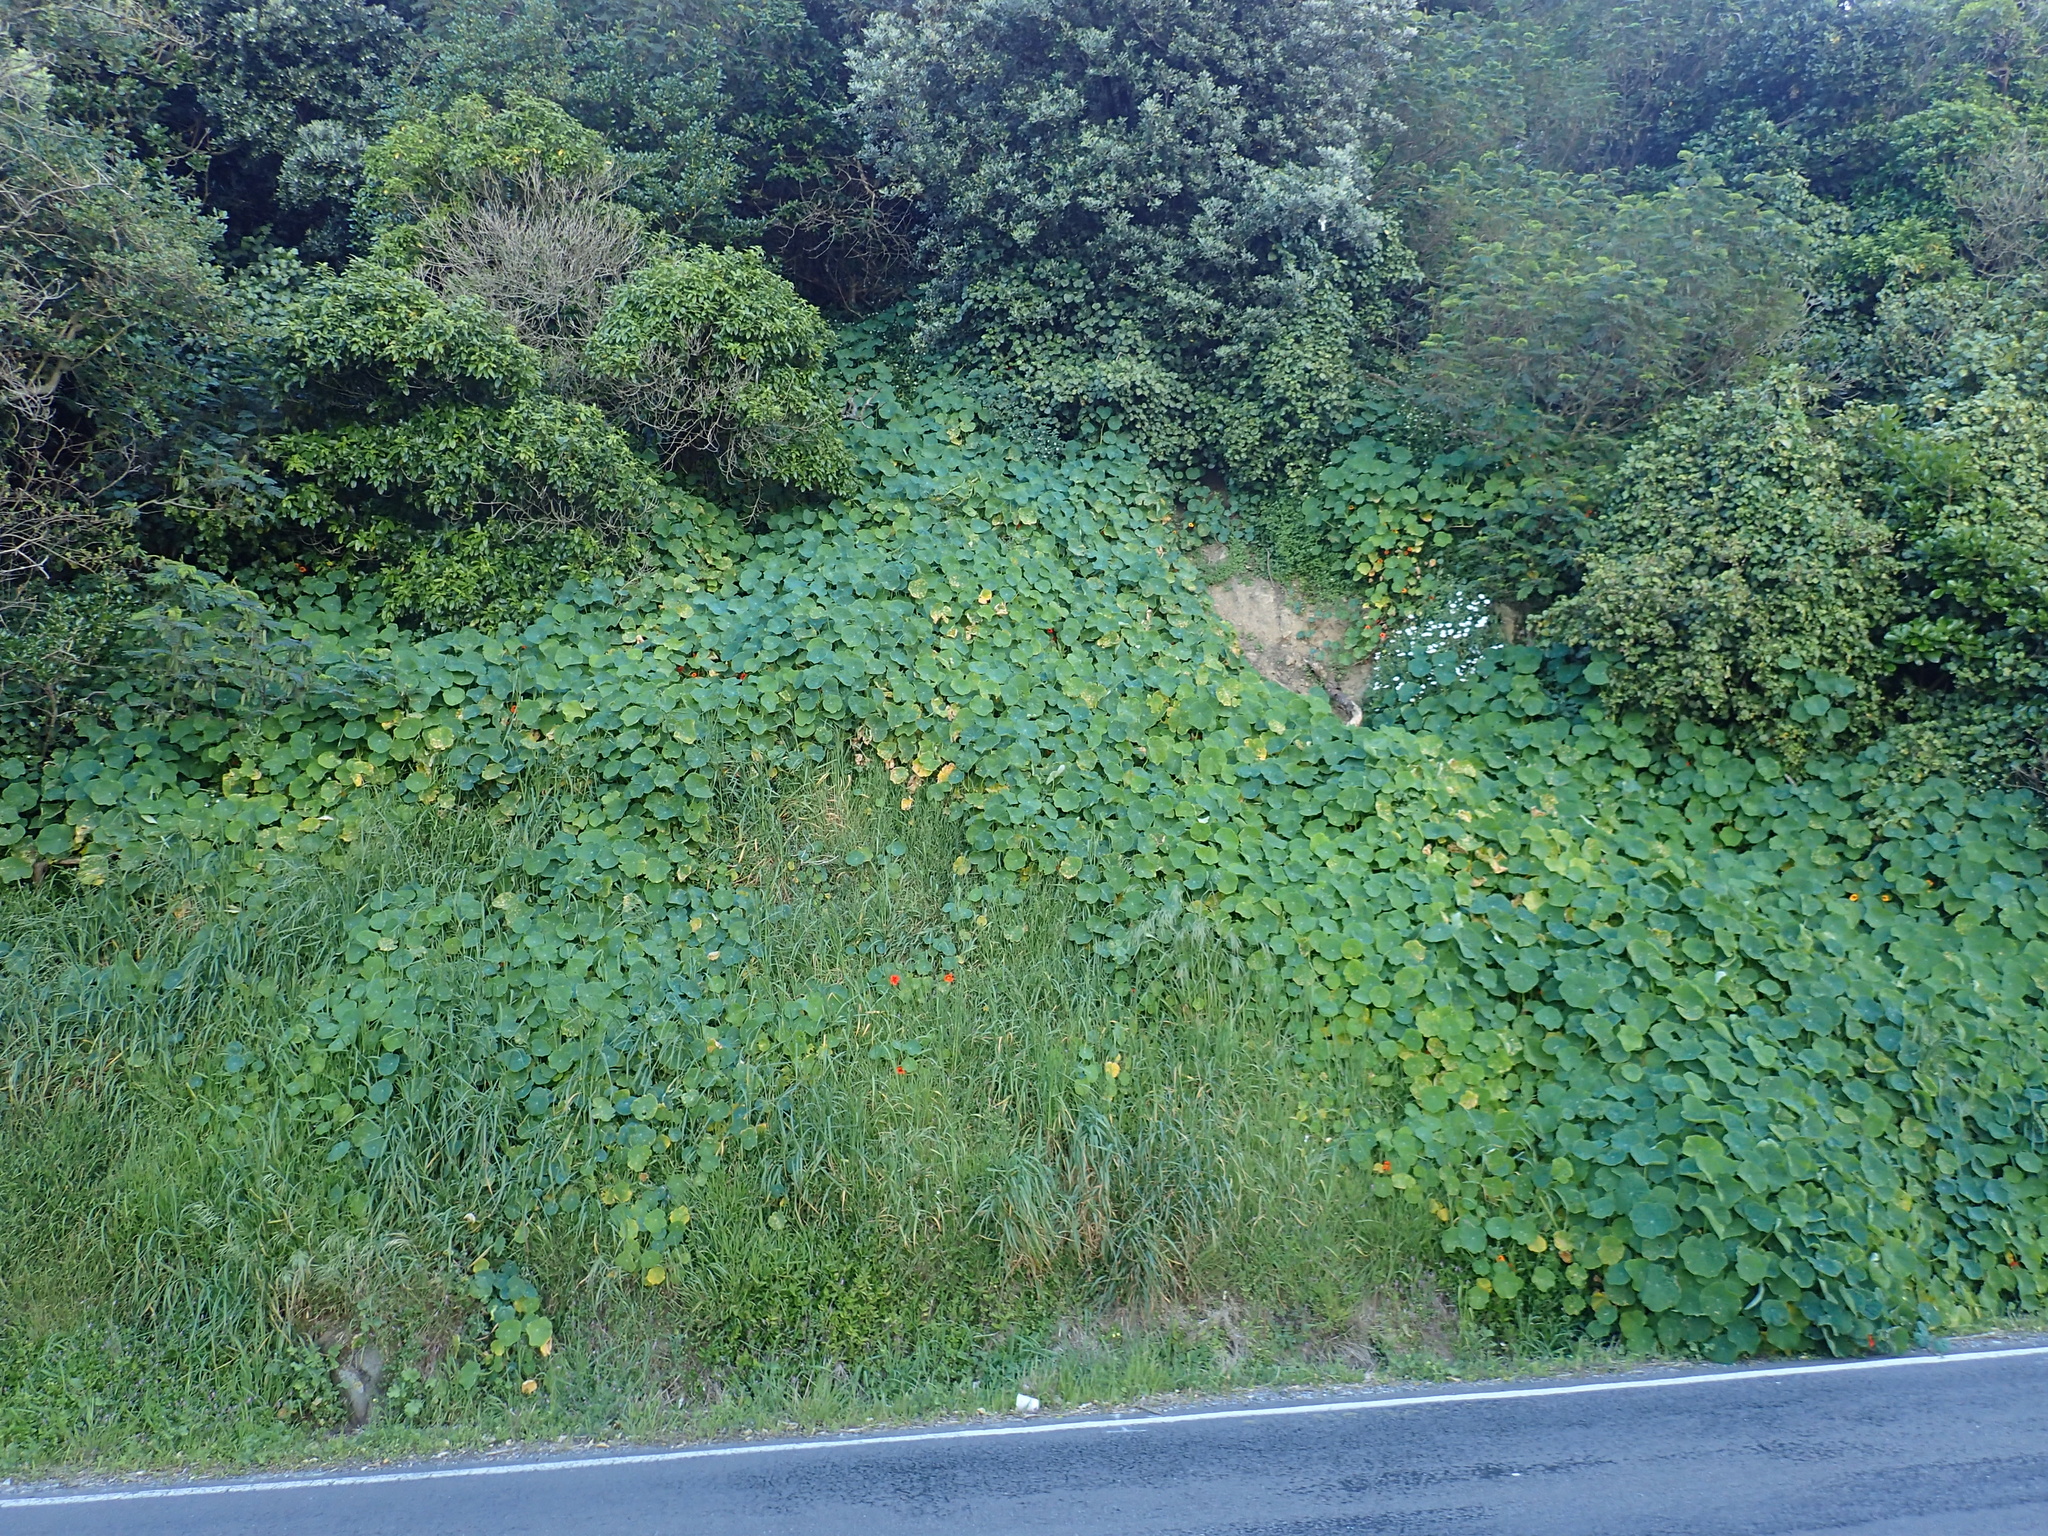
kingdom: Plantae
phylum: Tracheophyta
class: Magnoliopsida
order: Brassicales
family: Tropaeolaceae
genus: Tropaeolum
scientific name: Tropaeolum majus
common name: Nasturtium
